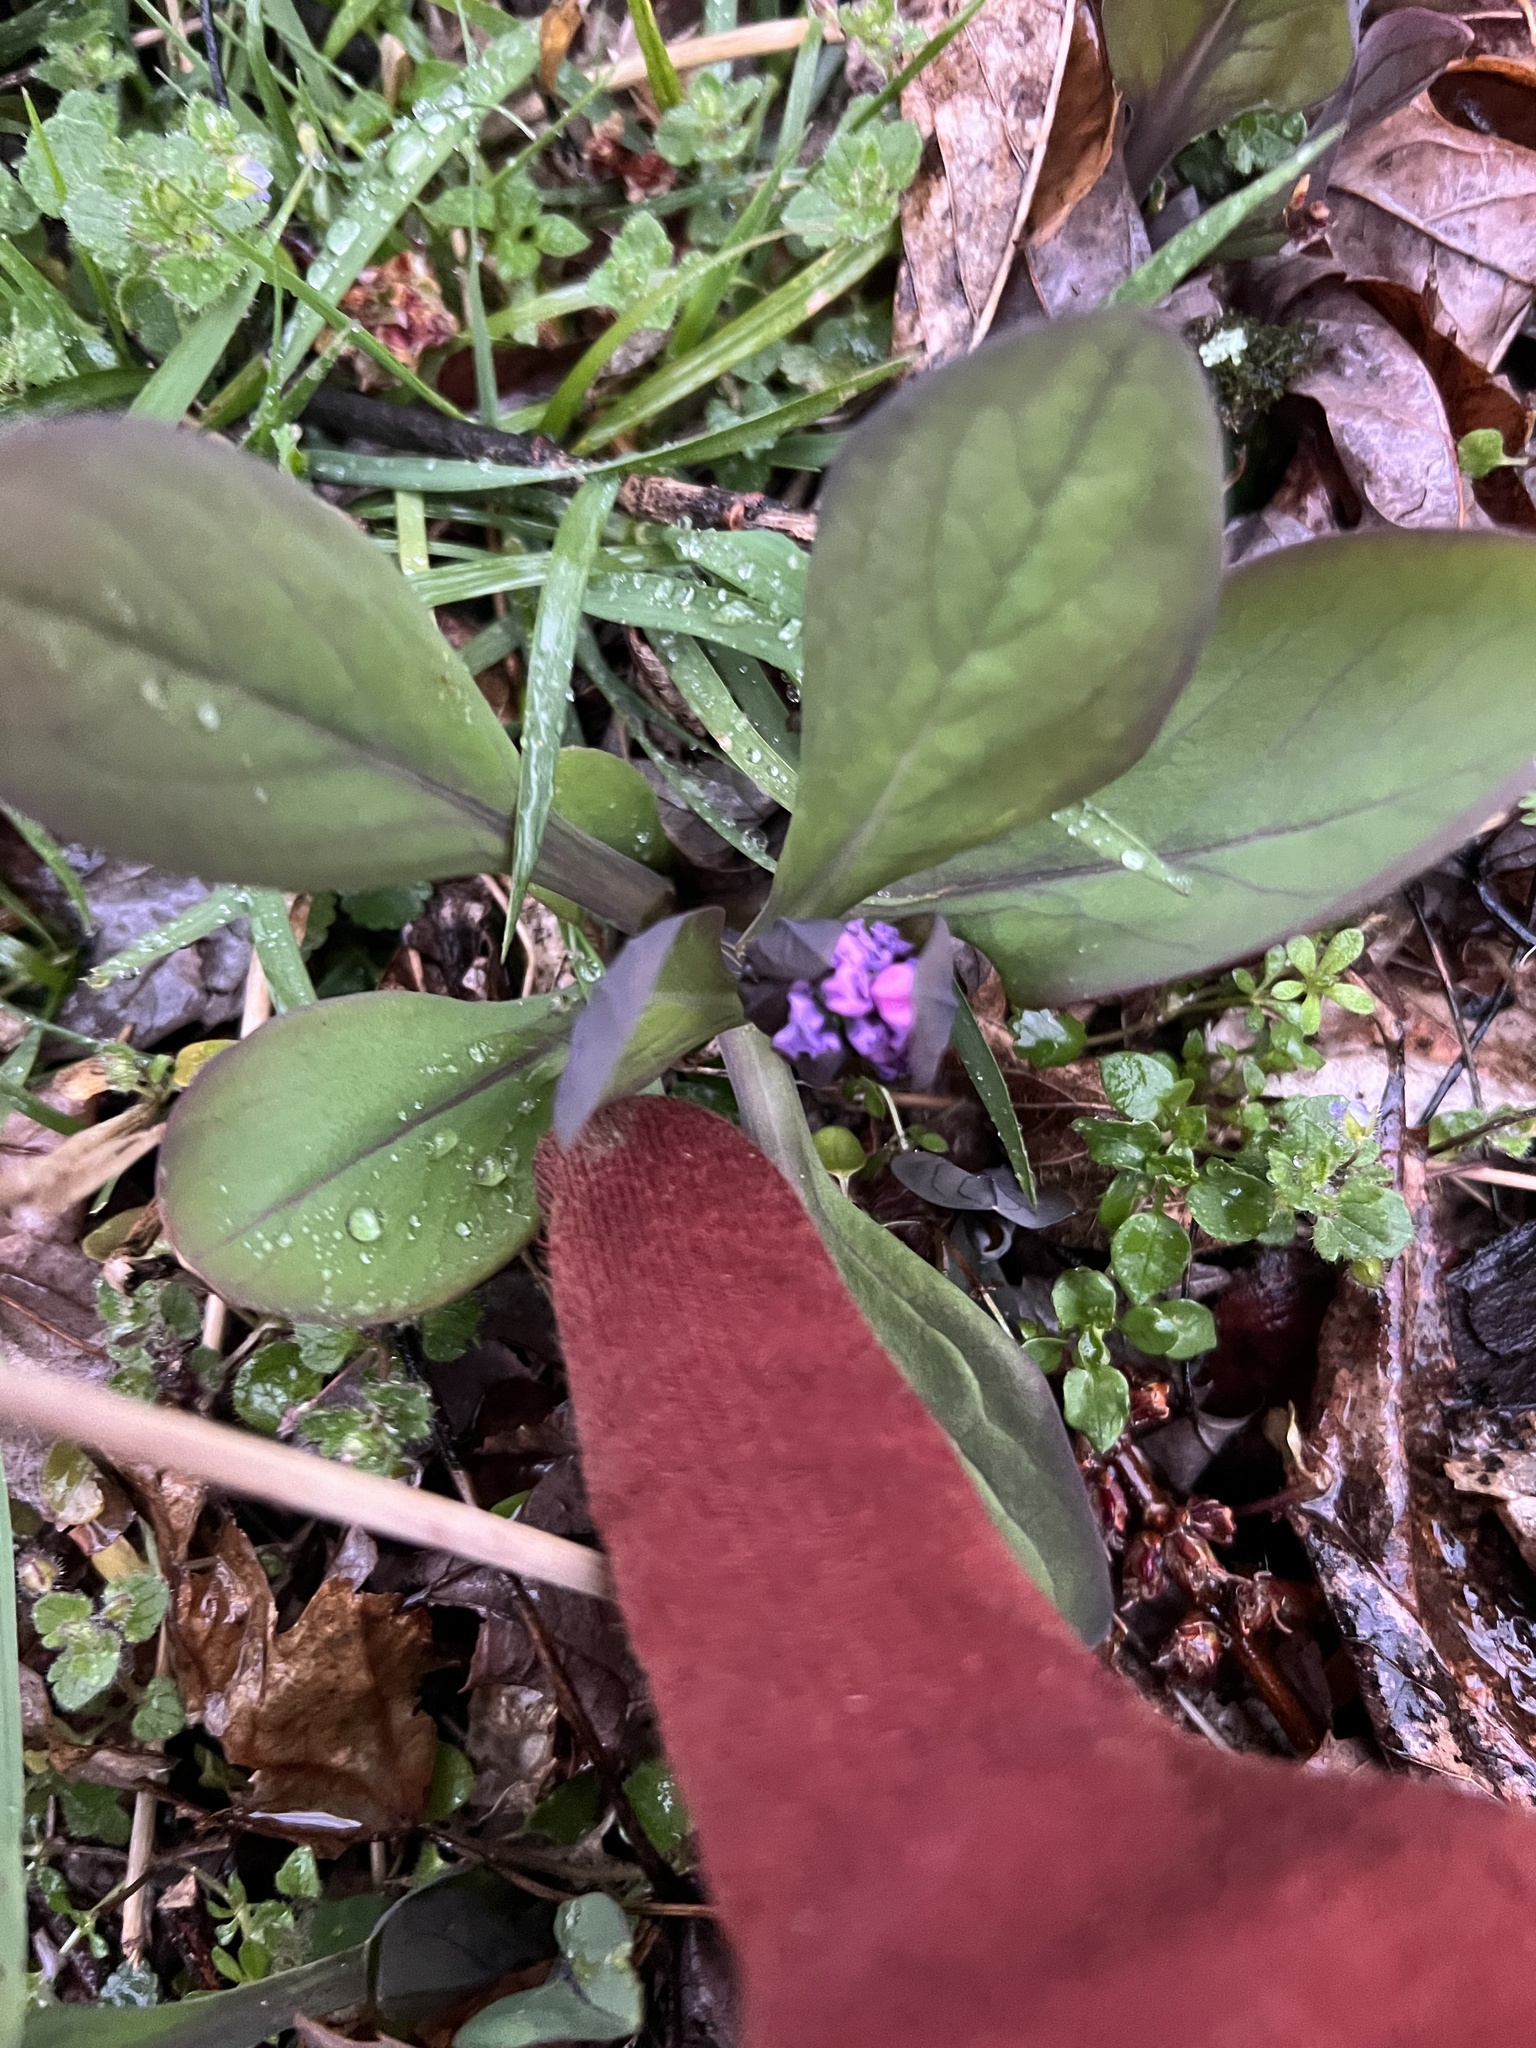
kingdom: Plantae
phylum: Tracheophyta
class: Magnoliopsida
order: Boraginales
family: Boraginaceae
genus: Mertensia
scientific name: Mertensia virginica
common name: Virginia bluebells
